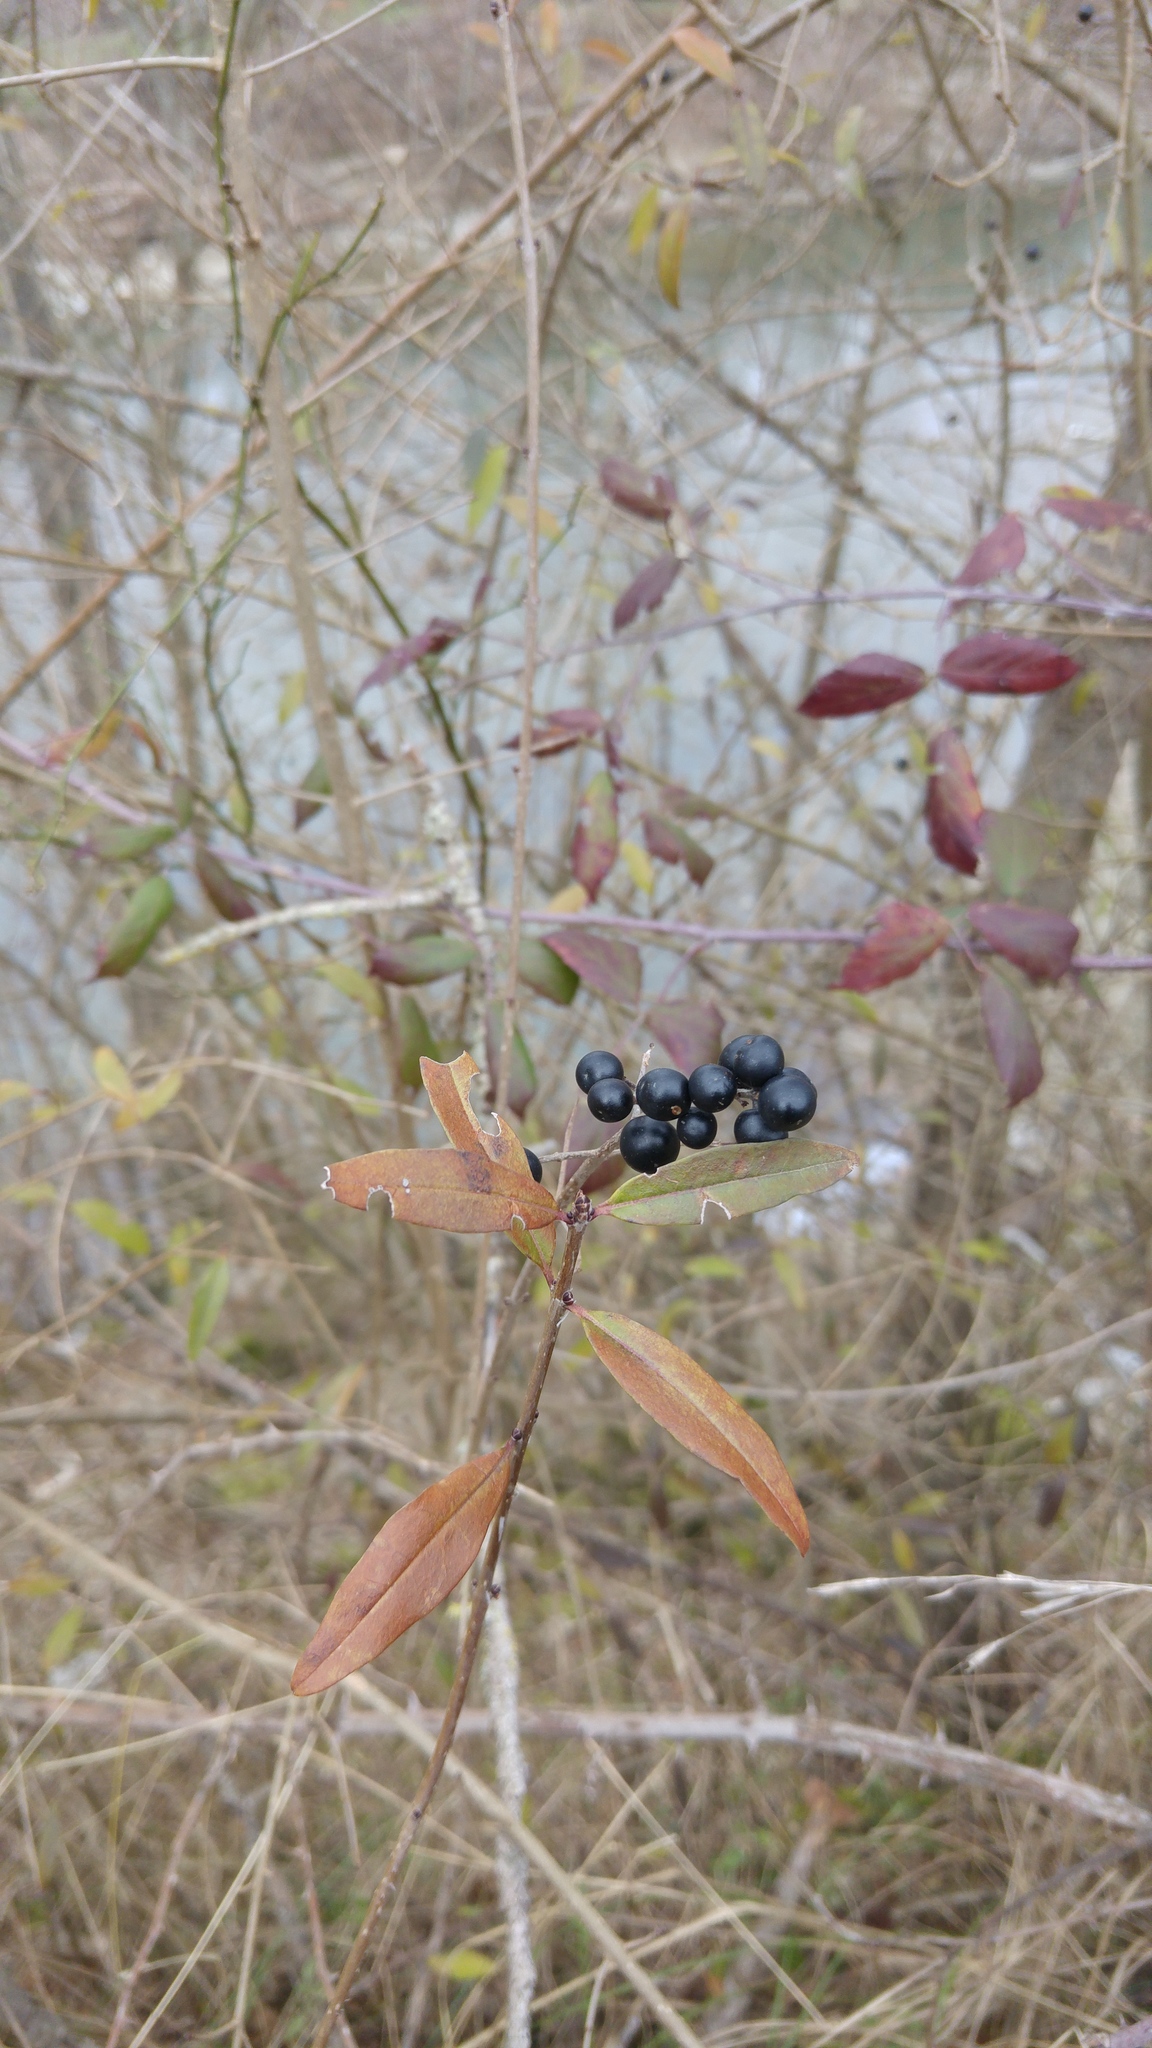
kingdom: Plantae
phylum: Tracheophyta
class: Magnoliopsida
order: Lamiales
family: Oleaceae
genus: Ligustrum
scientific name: Ligustrum vulgare
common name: Wild privet
